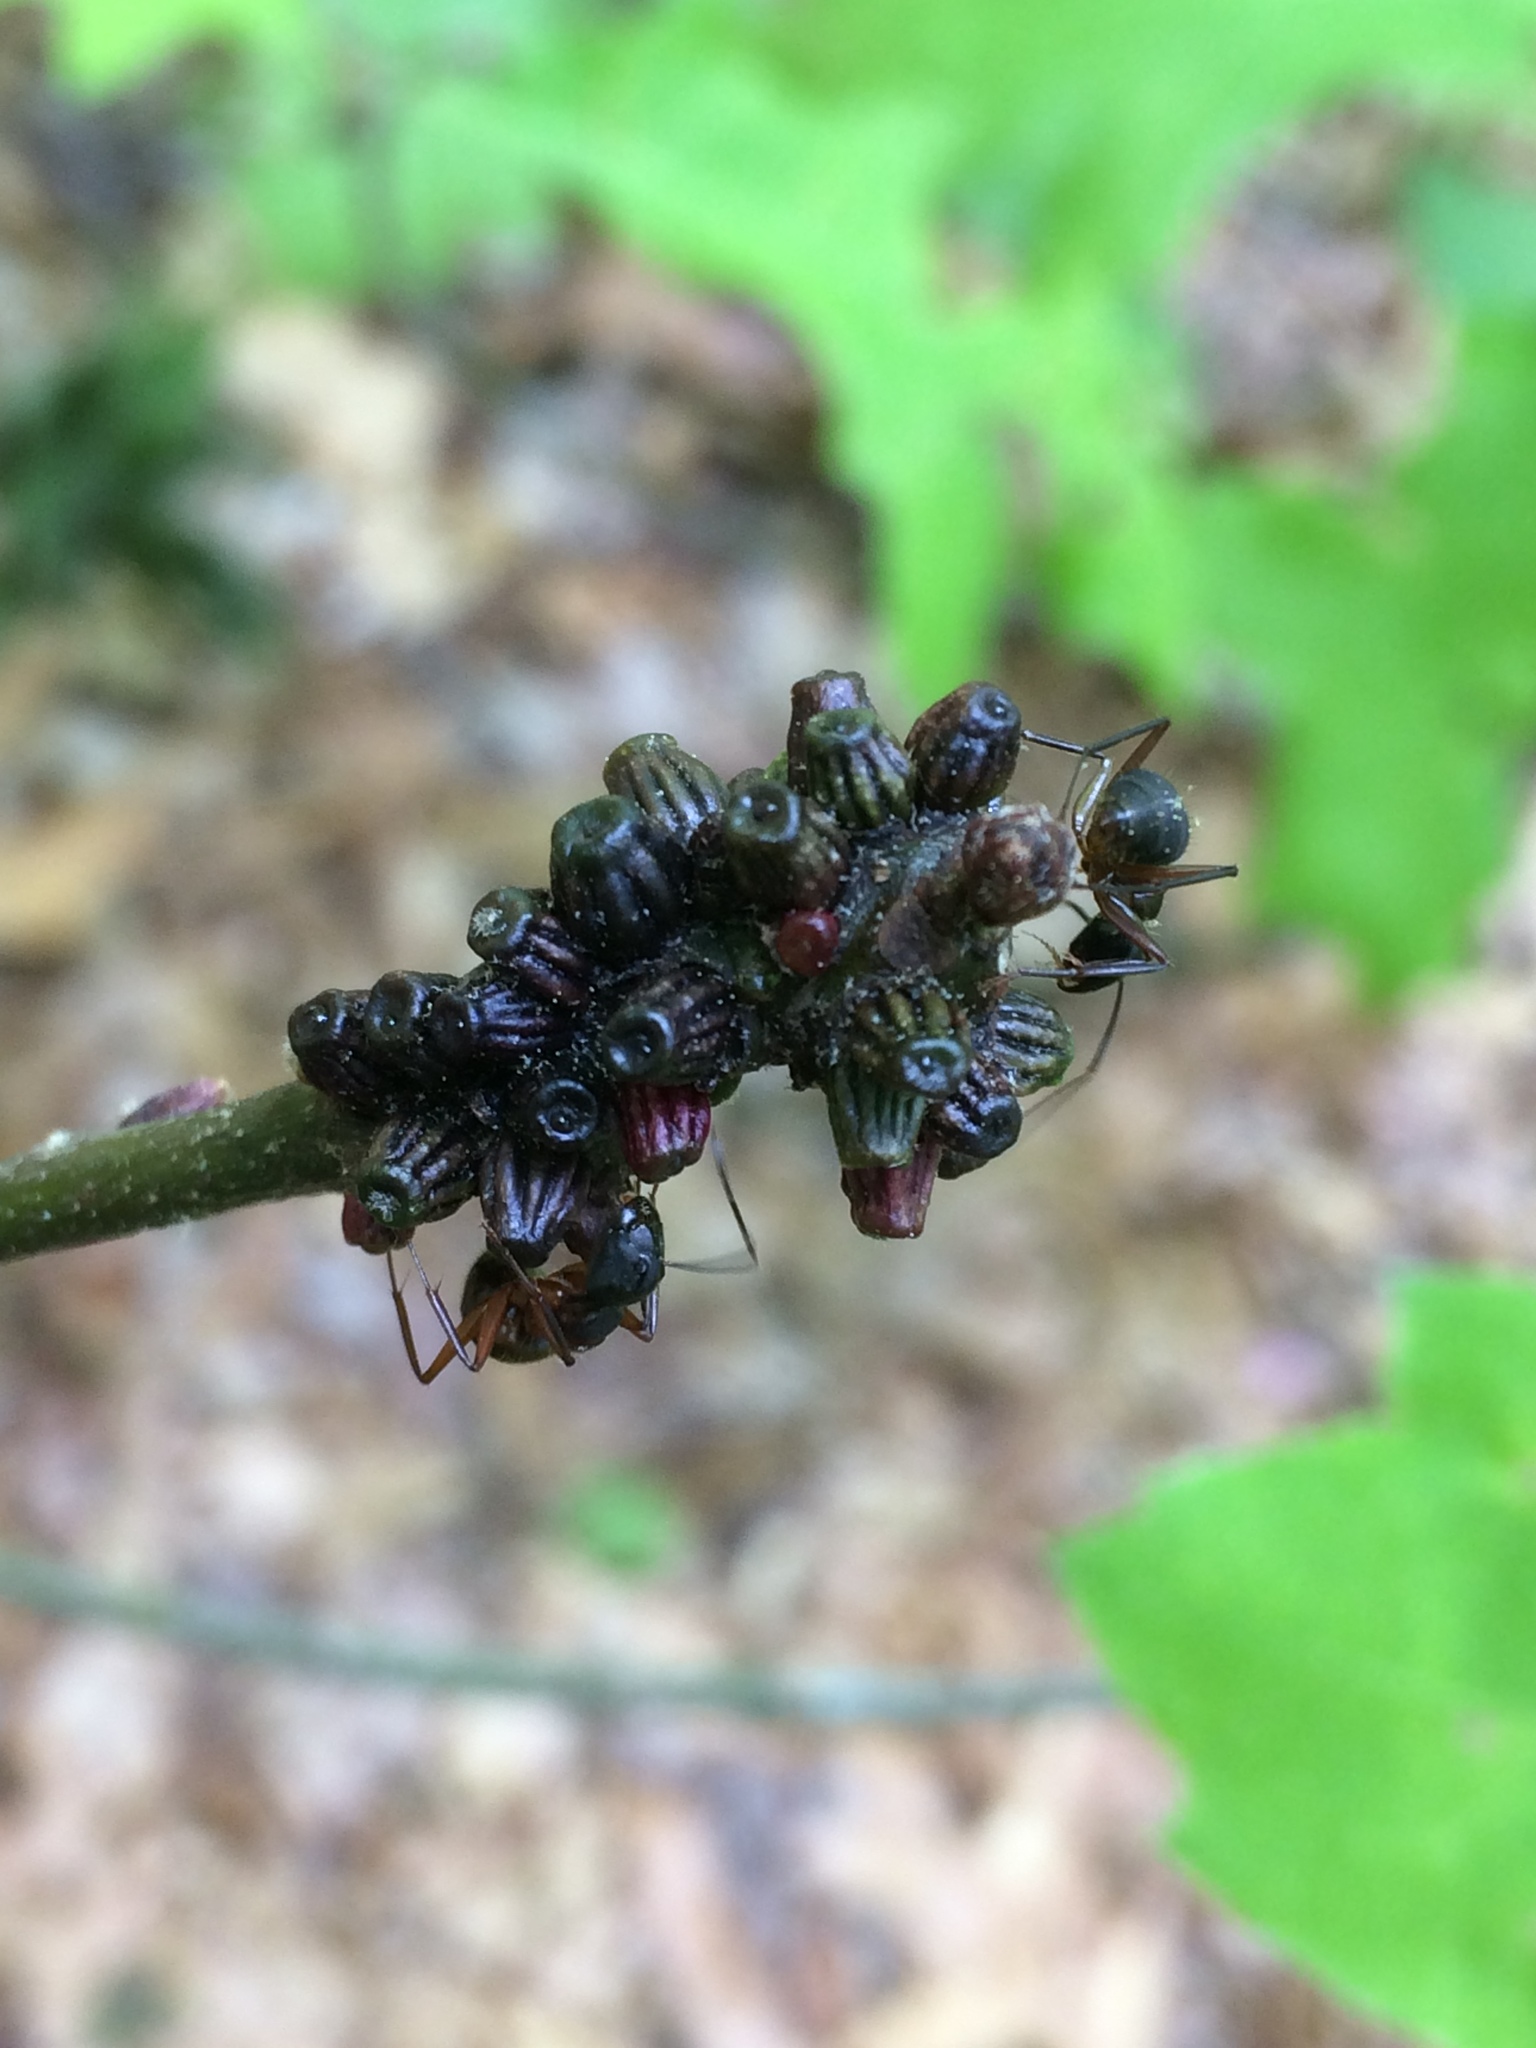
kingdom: Animalia
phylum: Arthropoda
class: Insecta
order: Hymenoptera
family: Cynipidae
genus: Callirhytis
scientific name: Callirhytis
